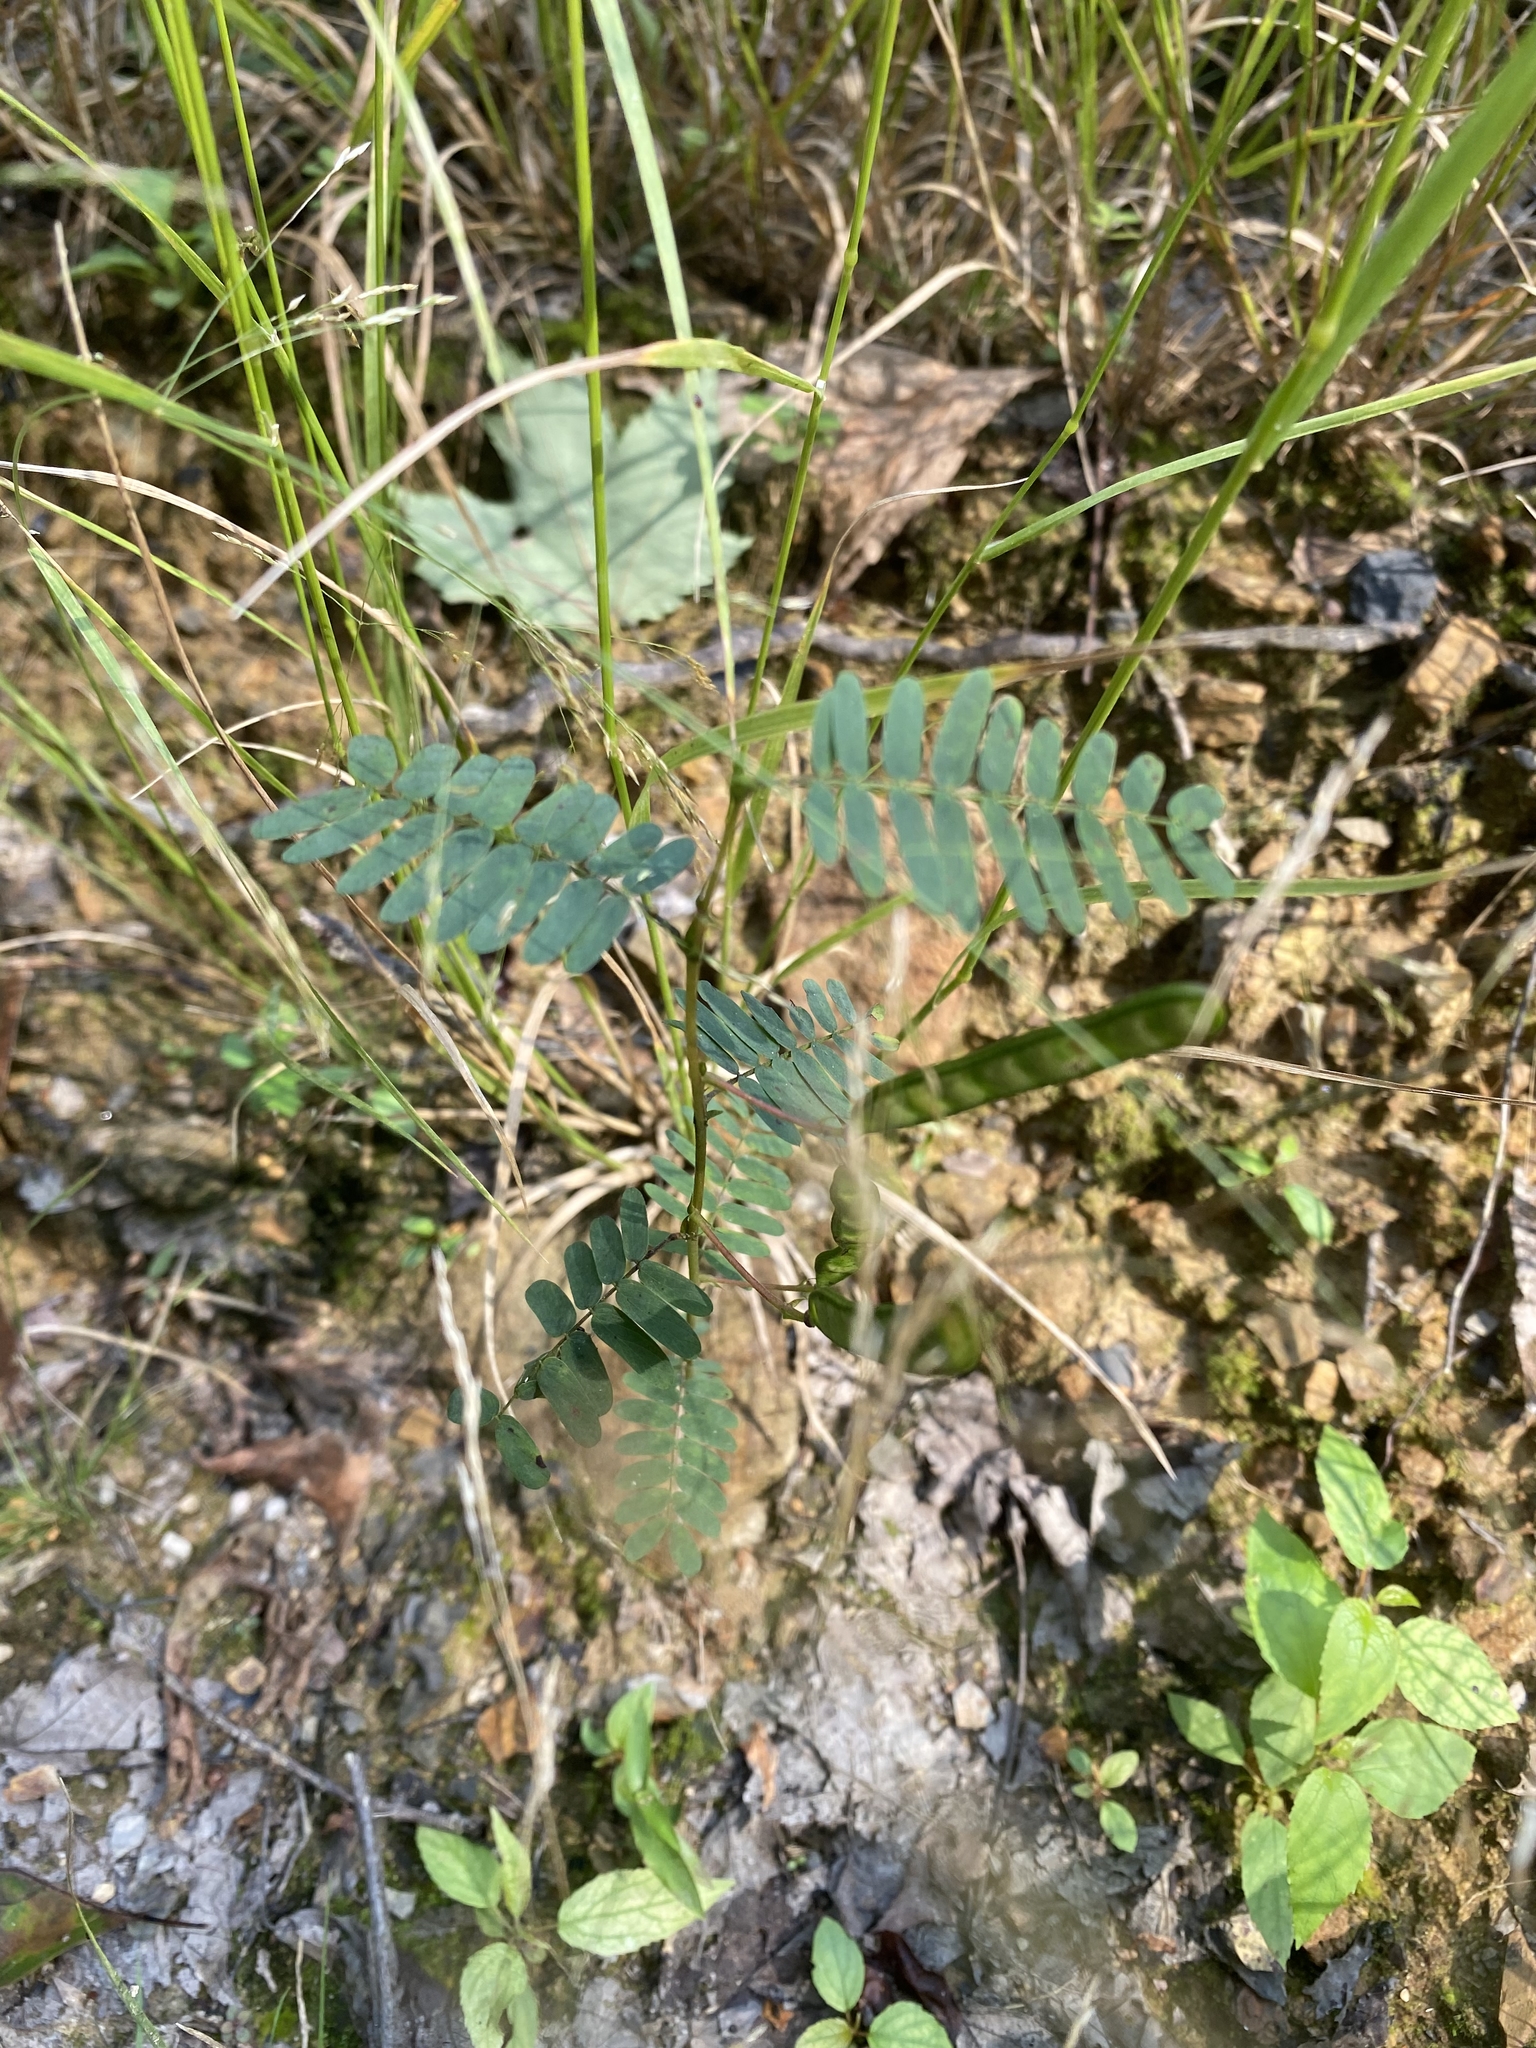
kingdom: Plantae
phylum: Tracheophyta
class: Magnoliopsida
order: Fabales
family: Fabaceae
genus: Chamaecrista
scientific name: Chamaecrista fasciculata
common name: Golden cassia
